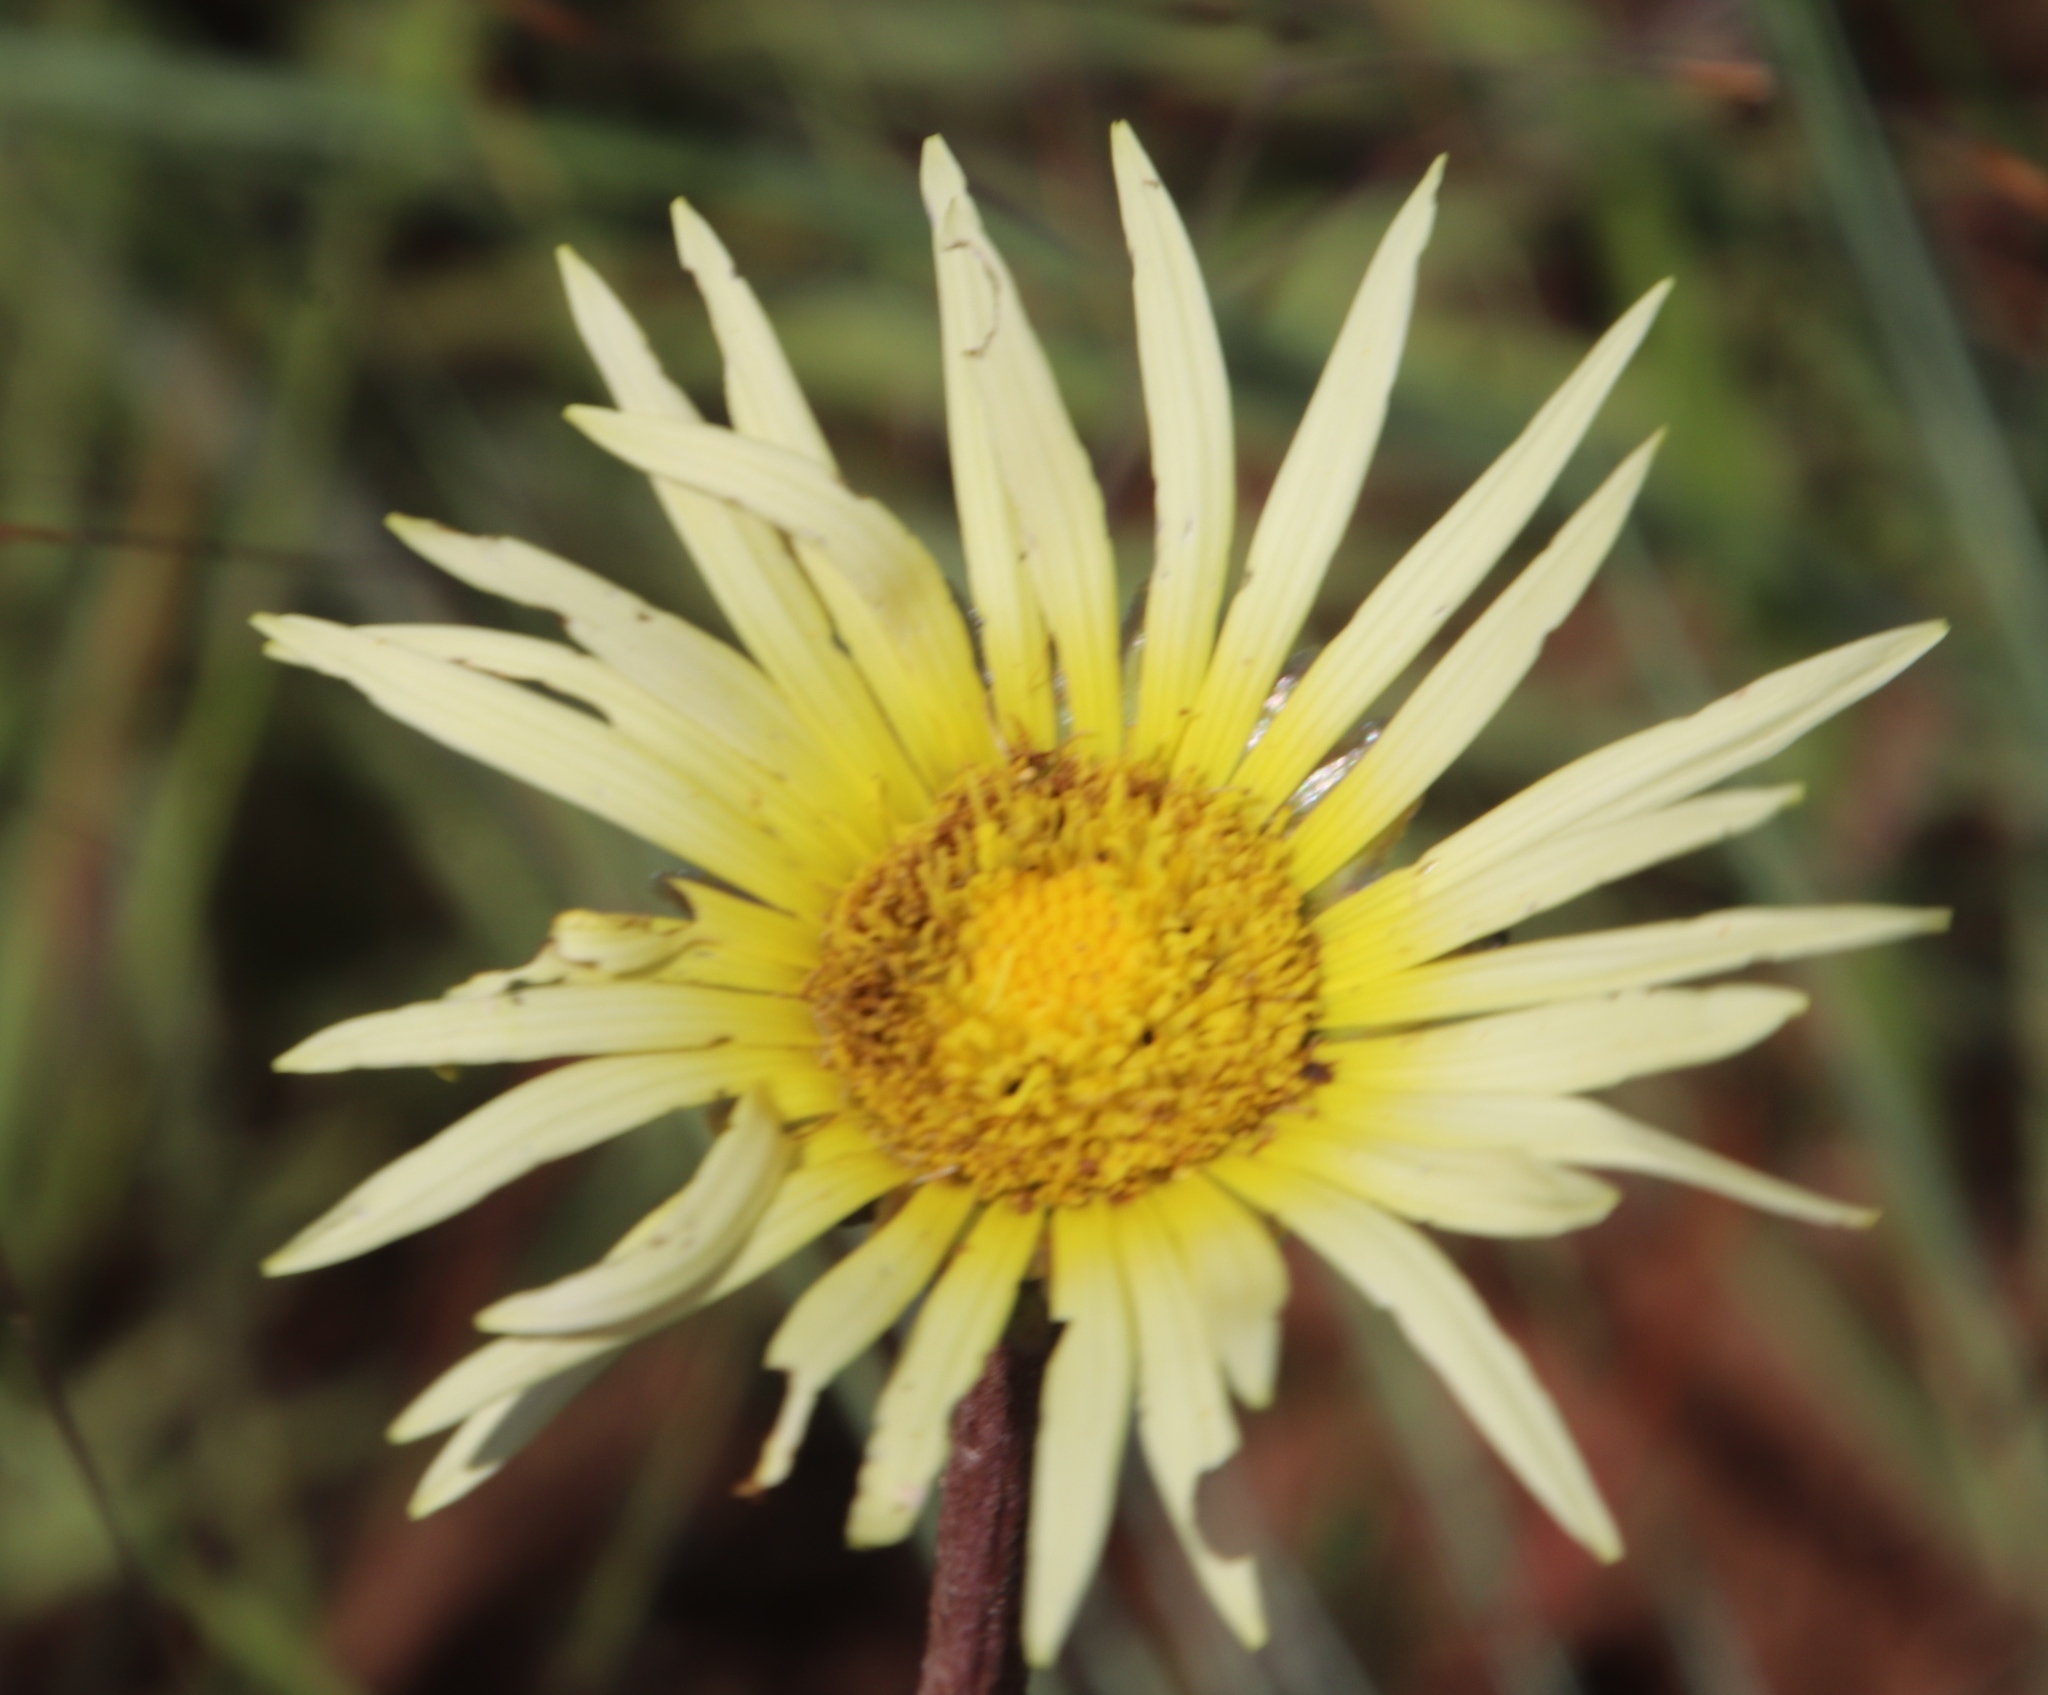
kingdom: Plantae
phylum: Tracheophyta
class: Magnoliopsida
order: Asterales
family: Asteraceae
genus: Haplocarpha
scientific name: Haplocarpha scaposa
